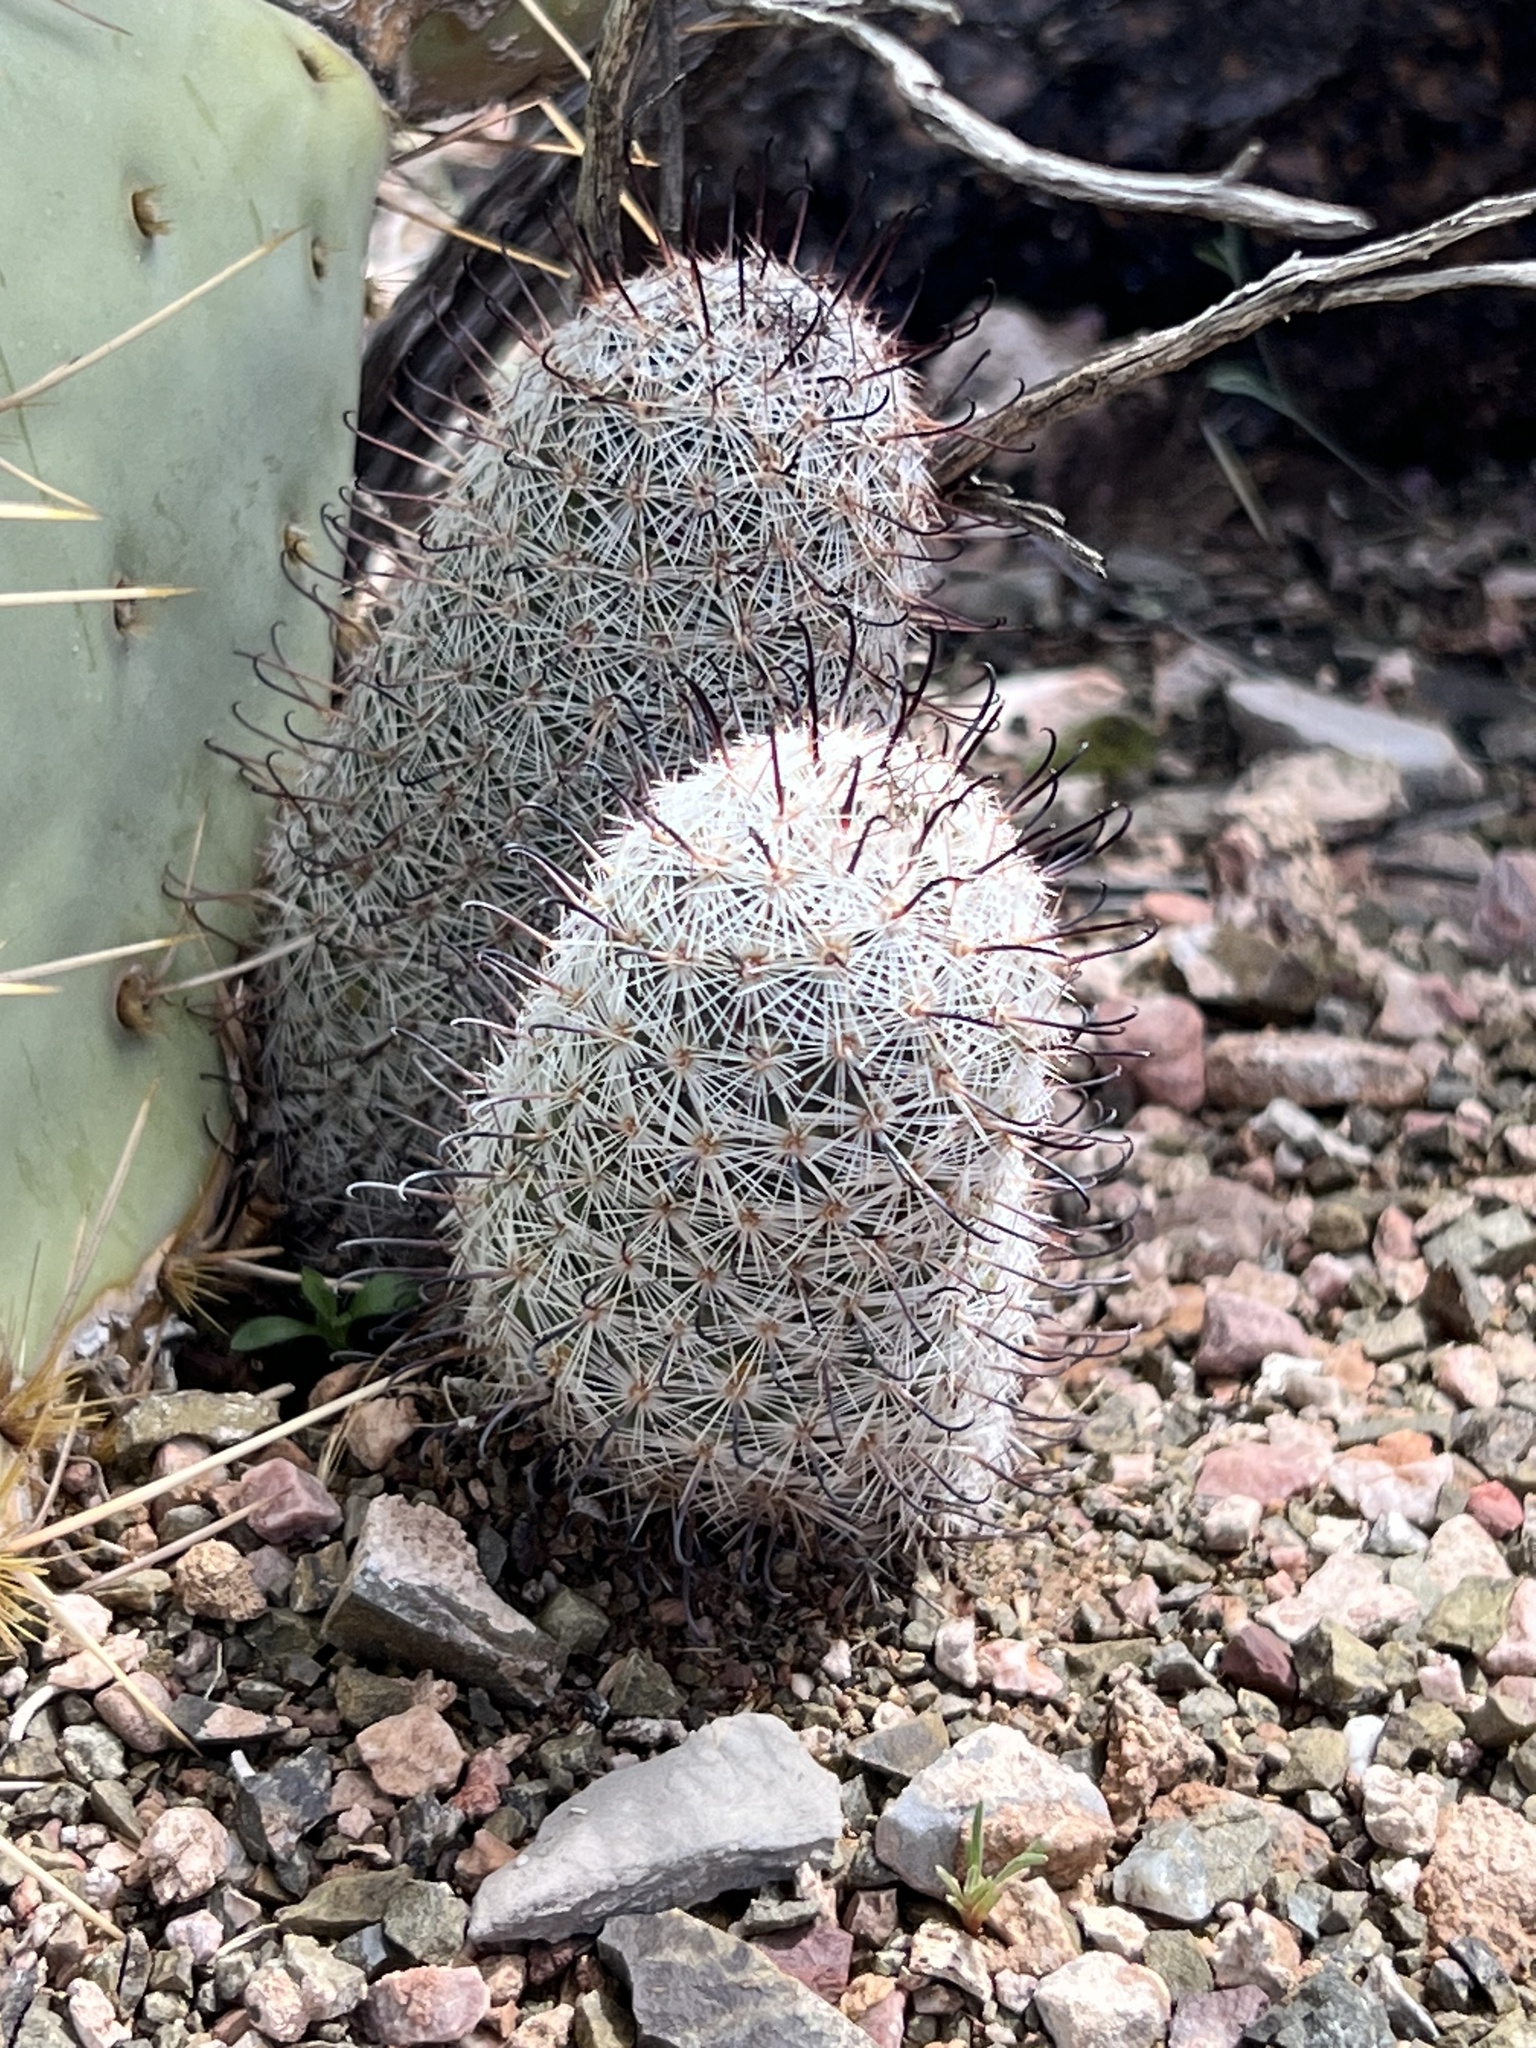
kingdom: Plantae
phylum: Tracheophyta
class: Magnoliopsida
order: Caryophyllales
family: Cactaceae
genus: Cochemiea
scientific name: Cochemiea grahamii
